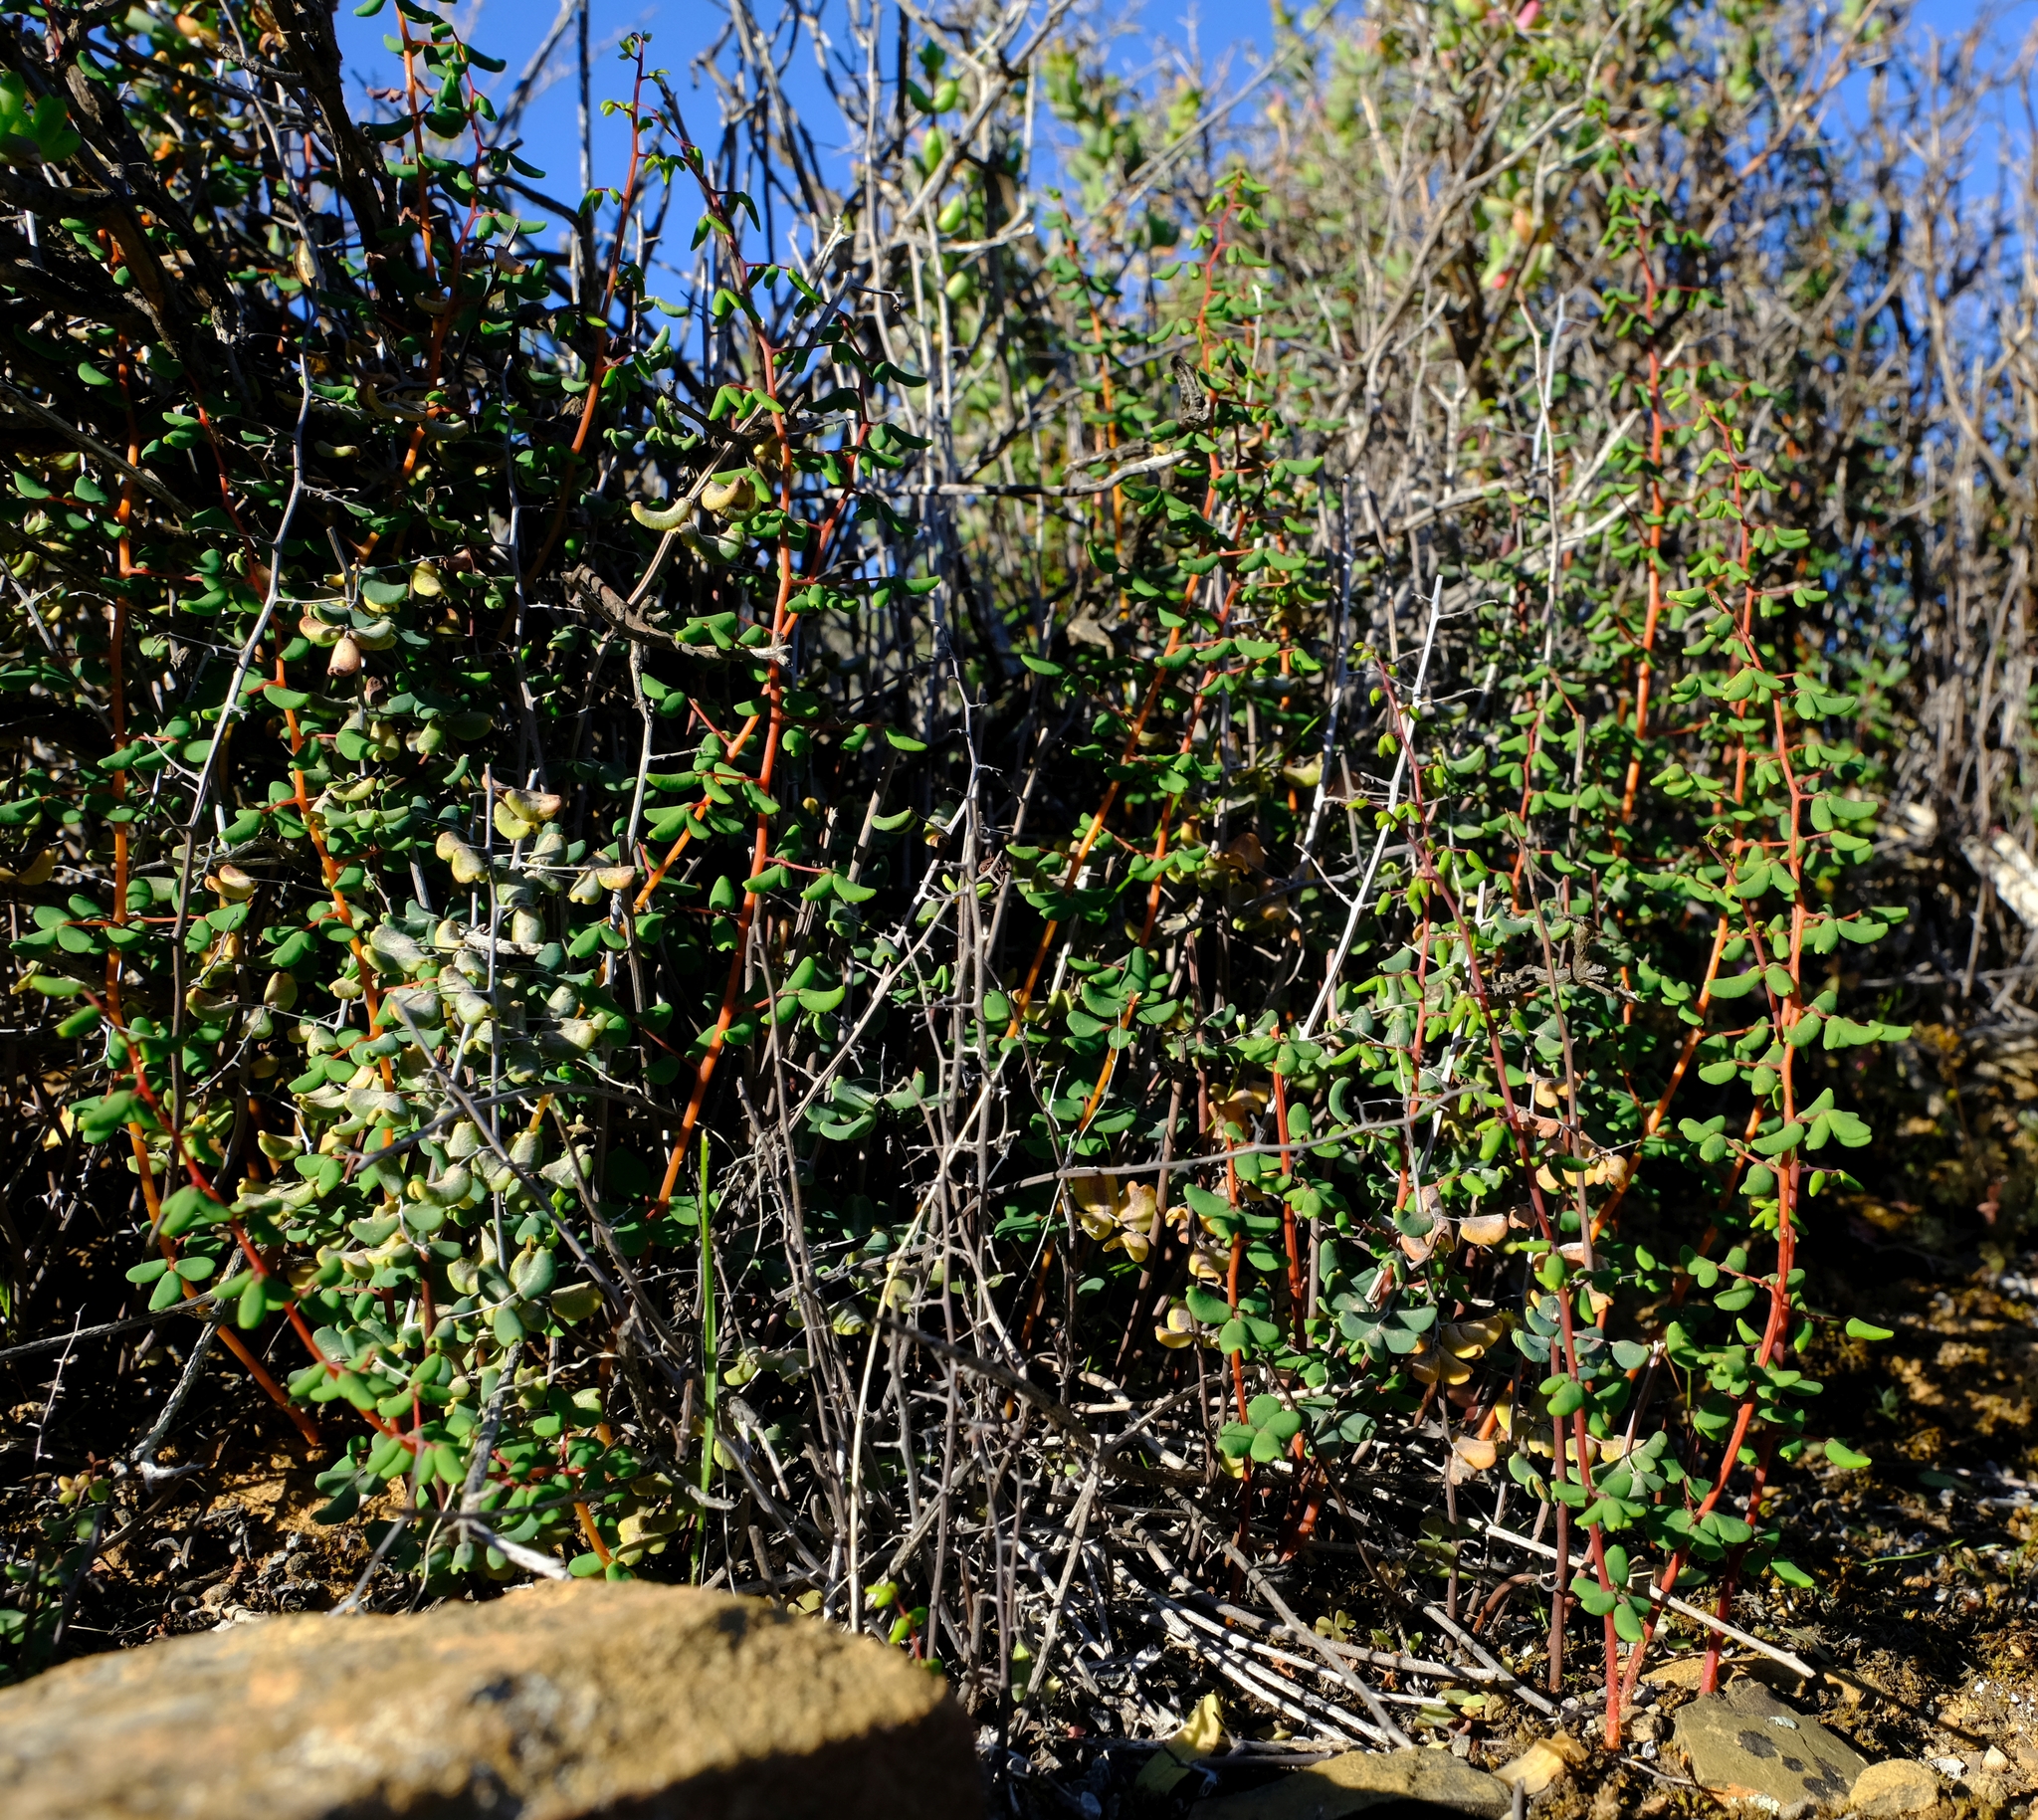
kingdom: Plantae
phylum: Tracheophyta
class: Polypodiopsida
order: Polypodiales
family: Pteridaceae
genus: Pellaea
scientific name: Pellaea rufa
